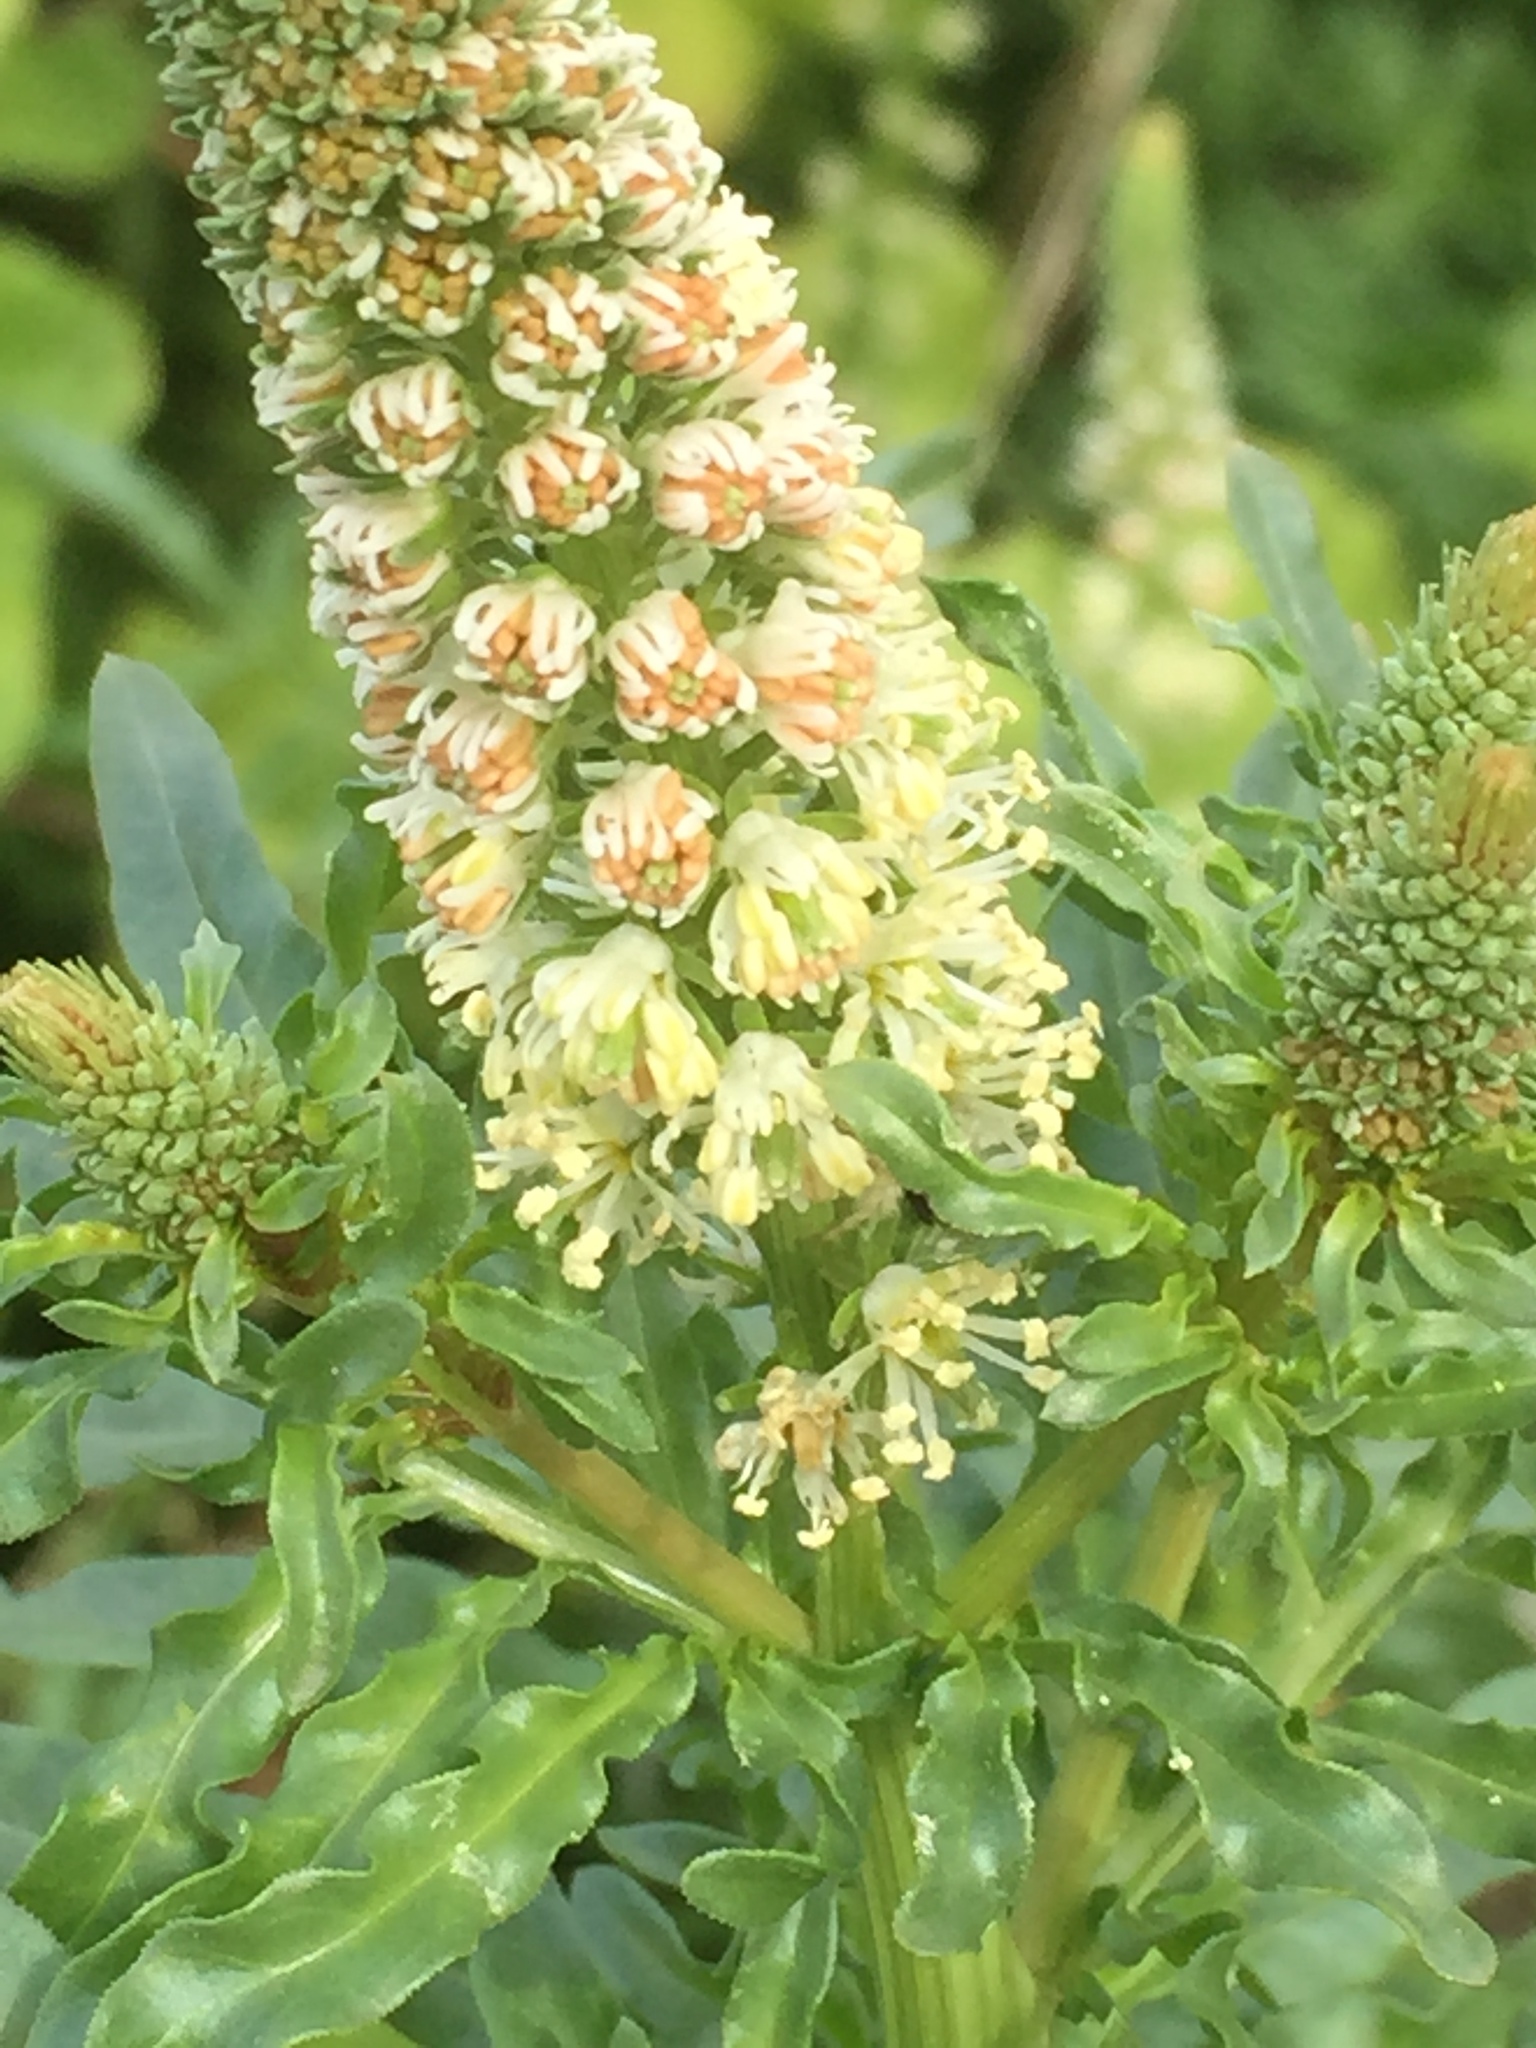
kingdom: Plantae
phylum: Tracheophyta
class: Magnoliopsida
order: Brassicales
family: Resedaceae
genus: Reseda
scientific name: Reseda alba
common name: White mignonette
